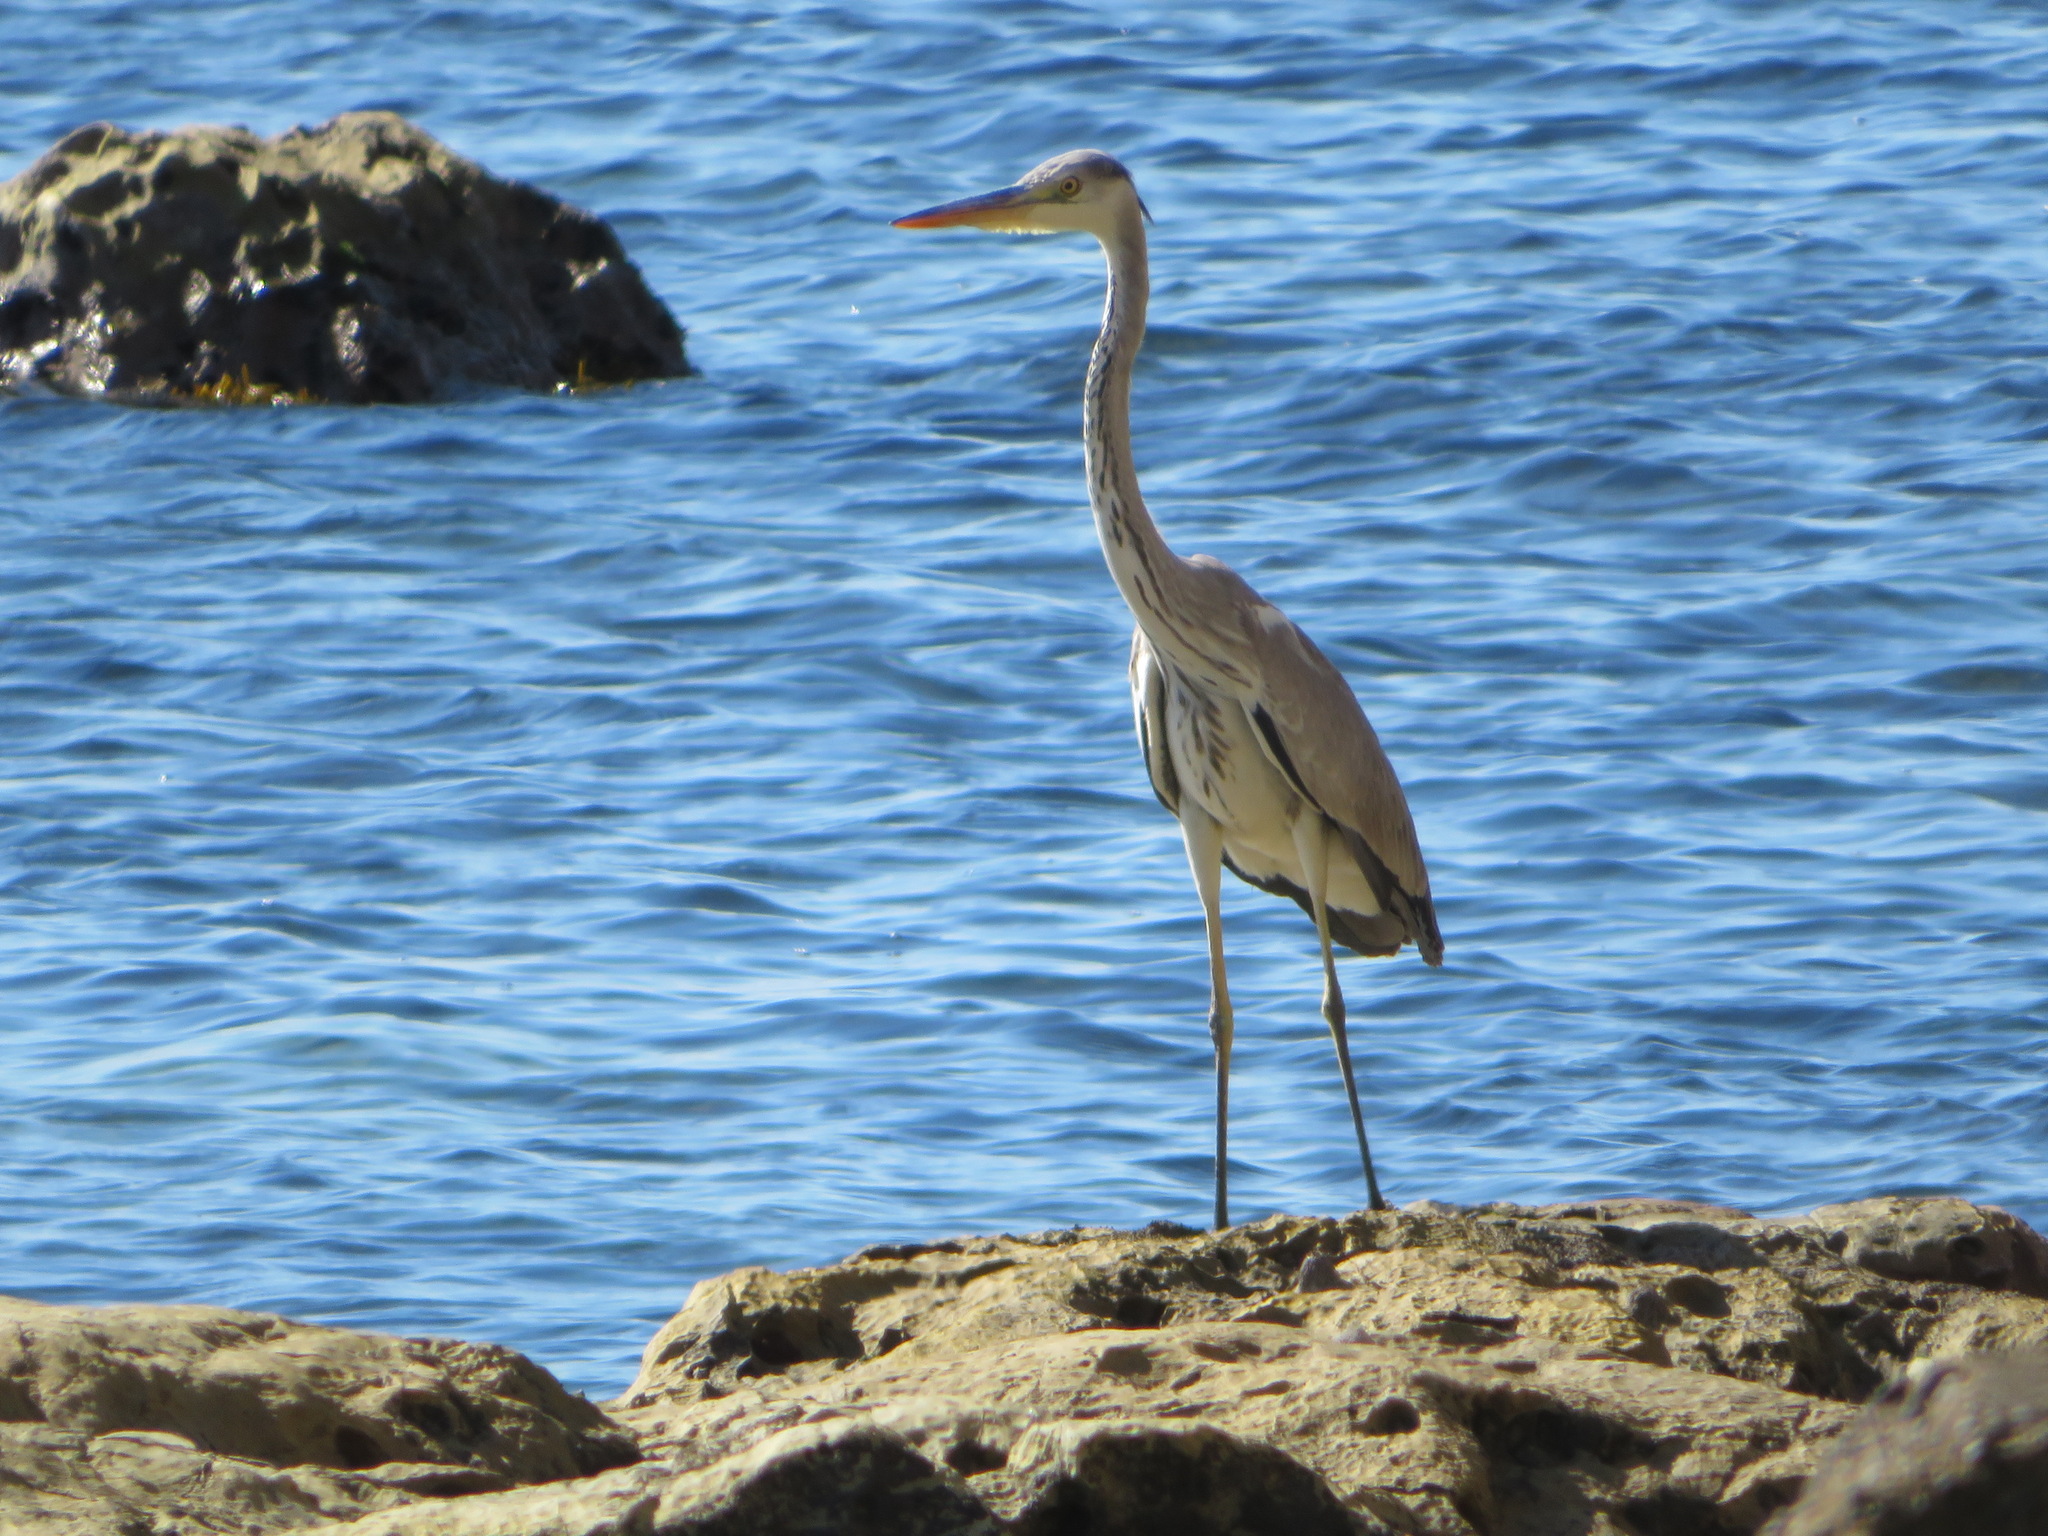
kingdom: Animalia
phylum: Chordata
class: Aves
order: Pelecaniformes
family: Ardeidae
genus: Ardea
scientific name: Ardea cinerea
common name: Grey heron
